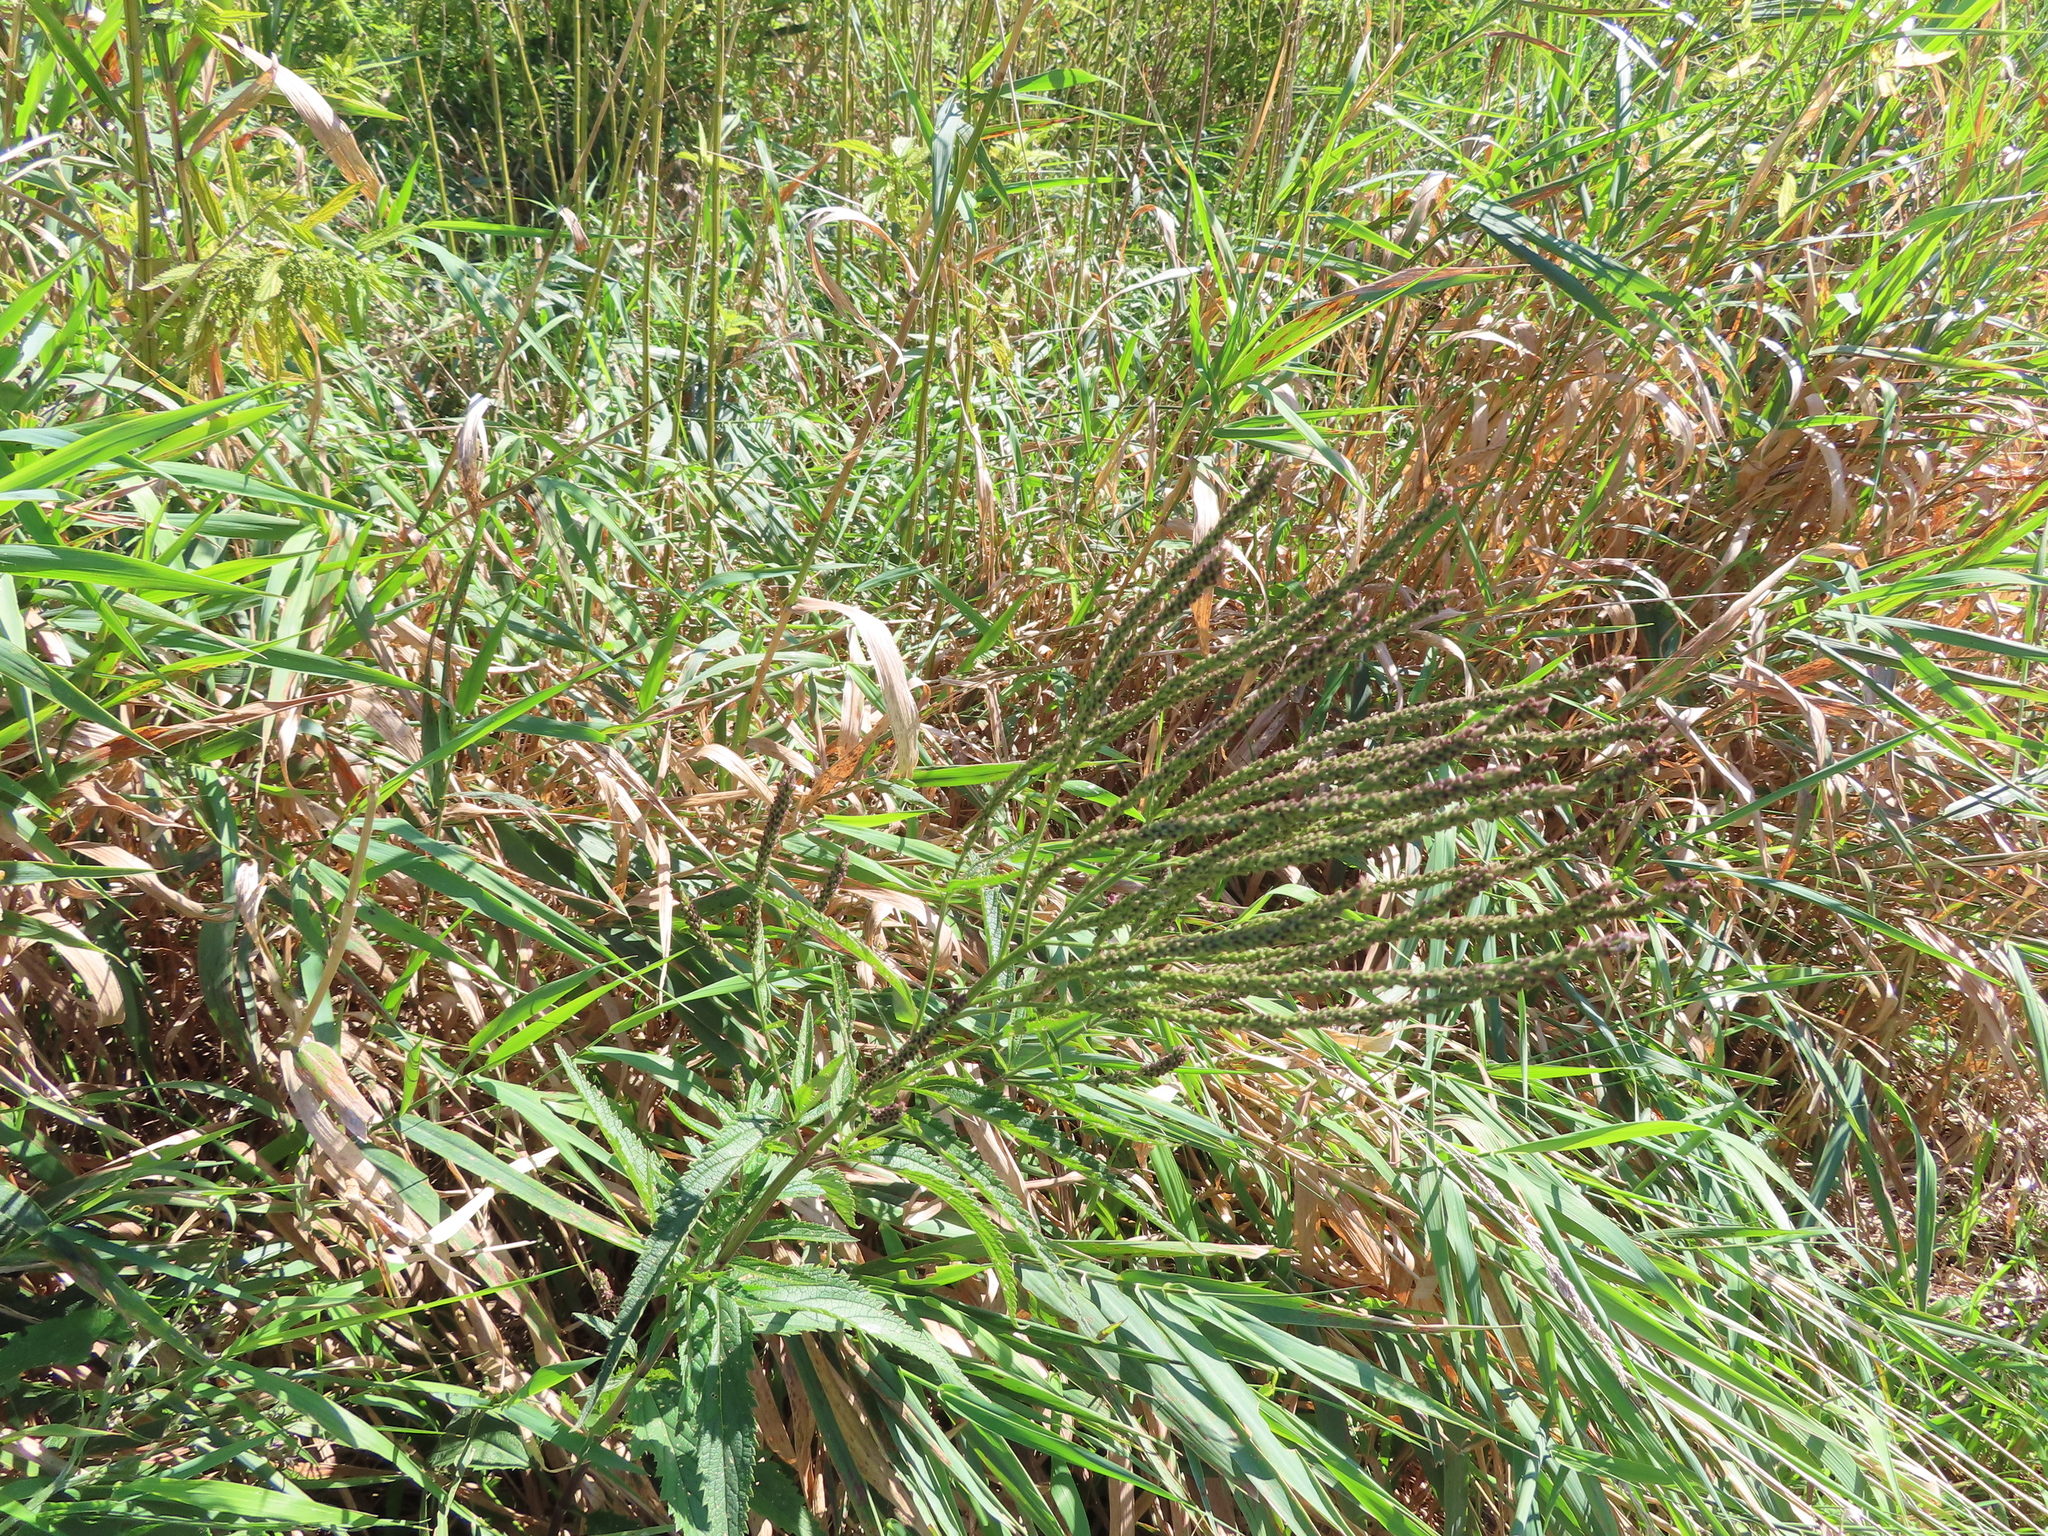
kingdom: Plantae
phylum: Tracheophyta
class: Magnoliopsida
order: Lamiales
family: Verbenaceae
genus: Verbena
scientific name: Verbena hastata
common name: American blue vervain
